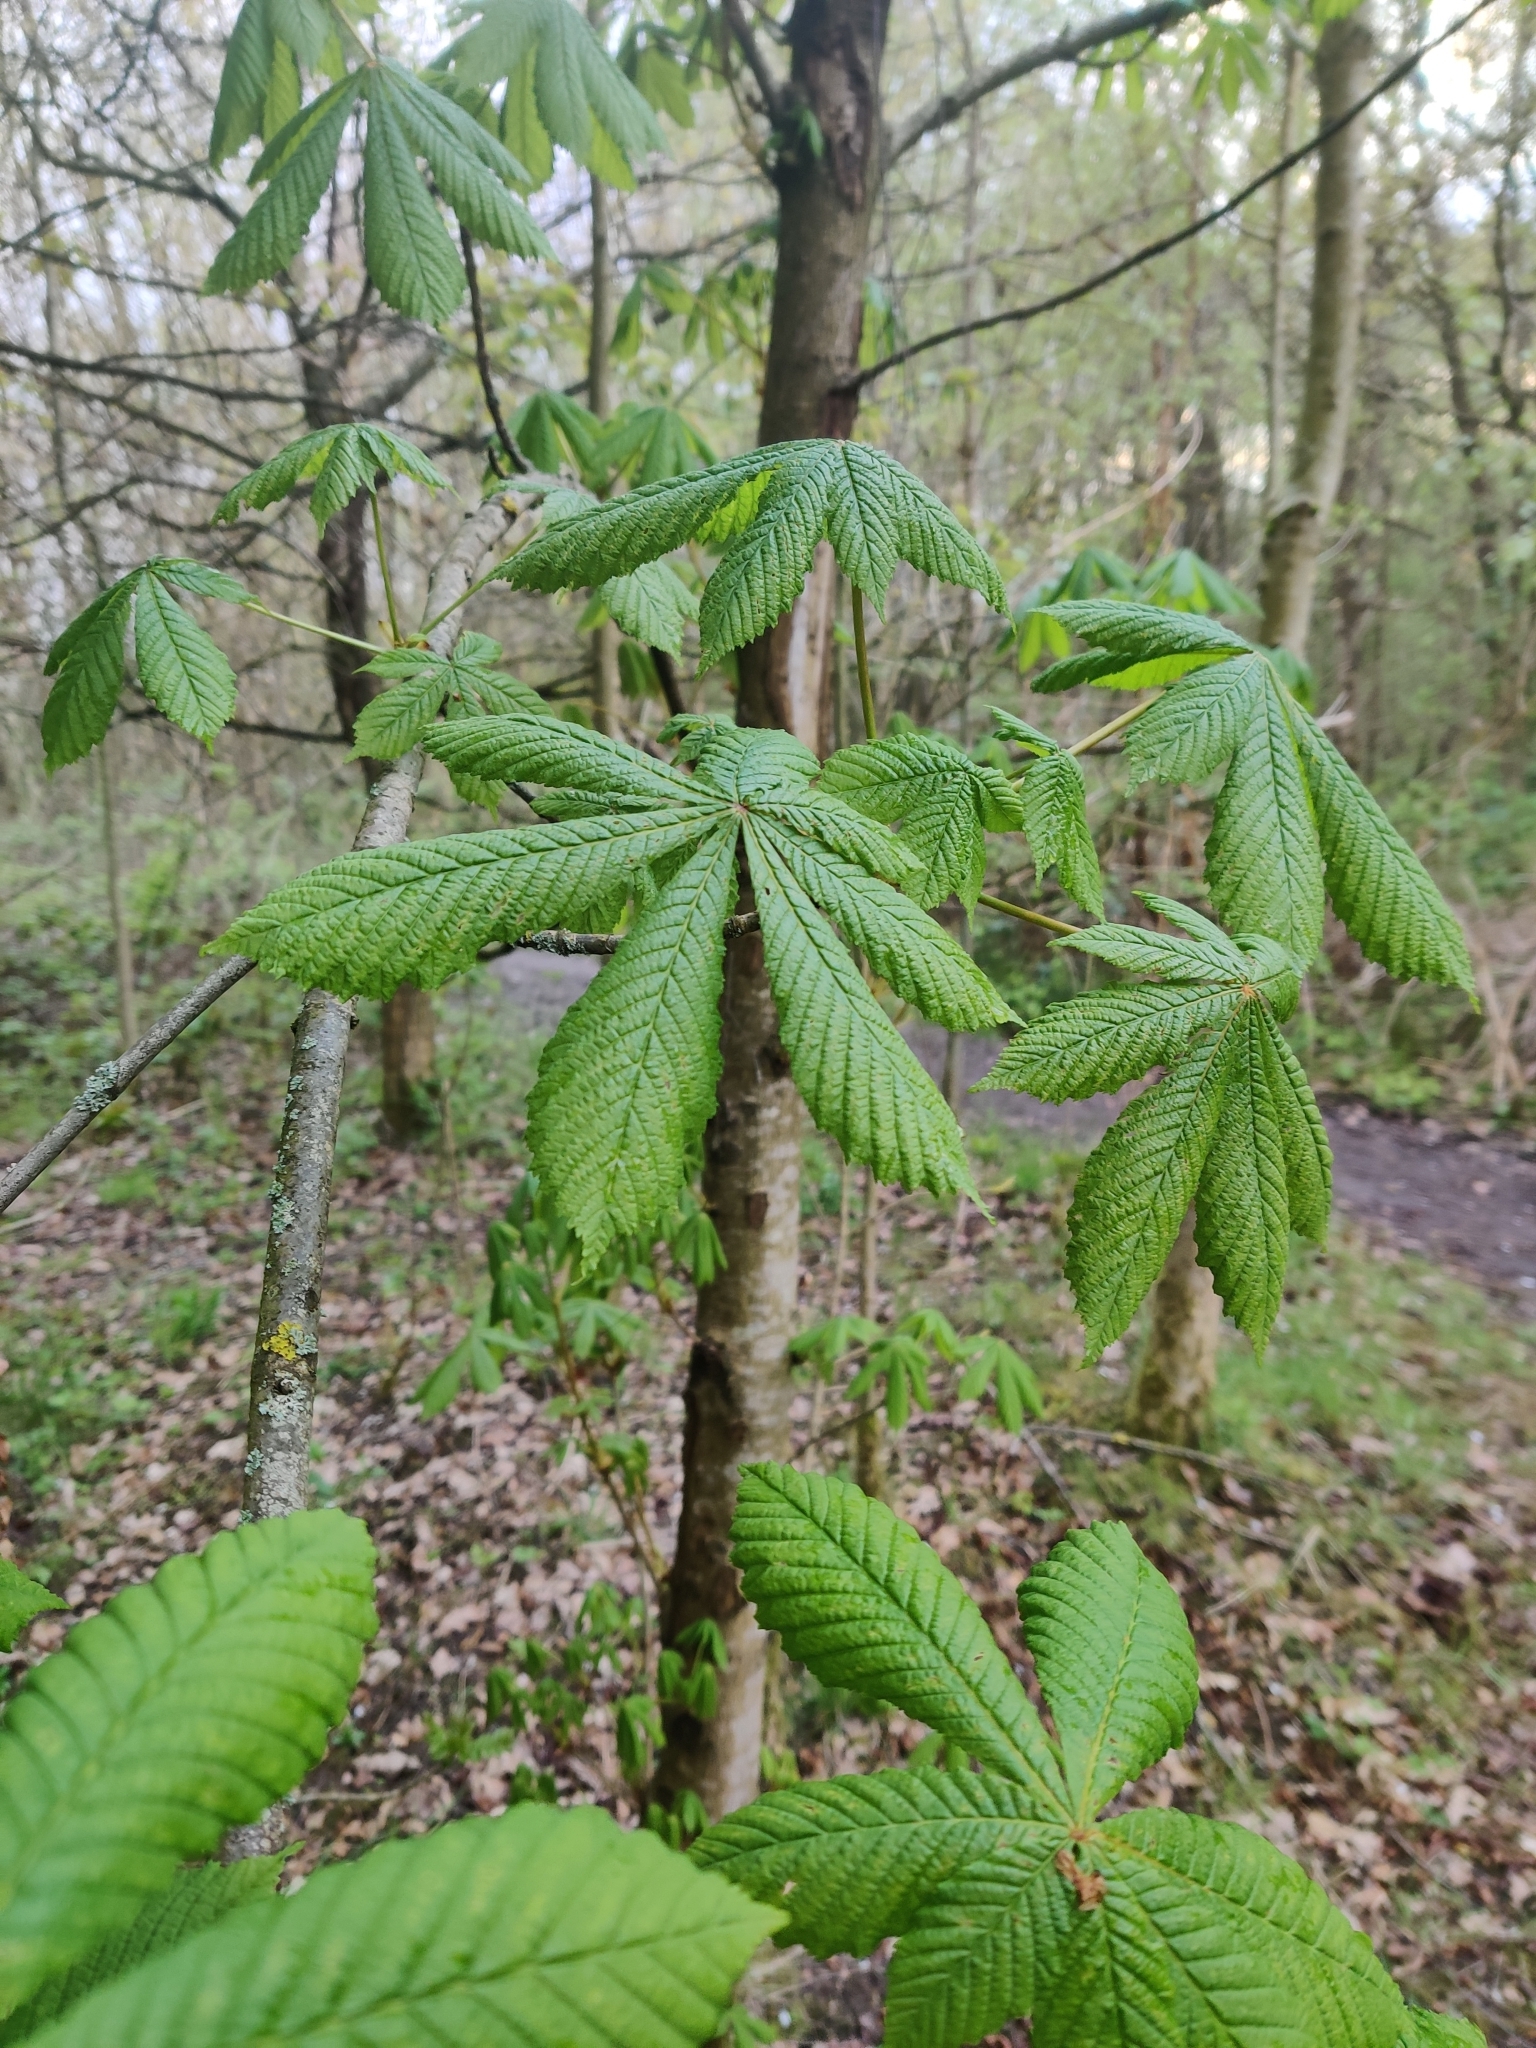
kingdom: Plantae
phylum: Tracheophyta
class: Magnoliopsida
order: Sapindales
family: Sapindaceae
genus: Aesculus
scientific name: Aesculus hippocastanum
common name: Horse-chestnut
